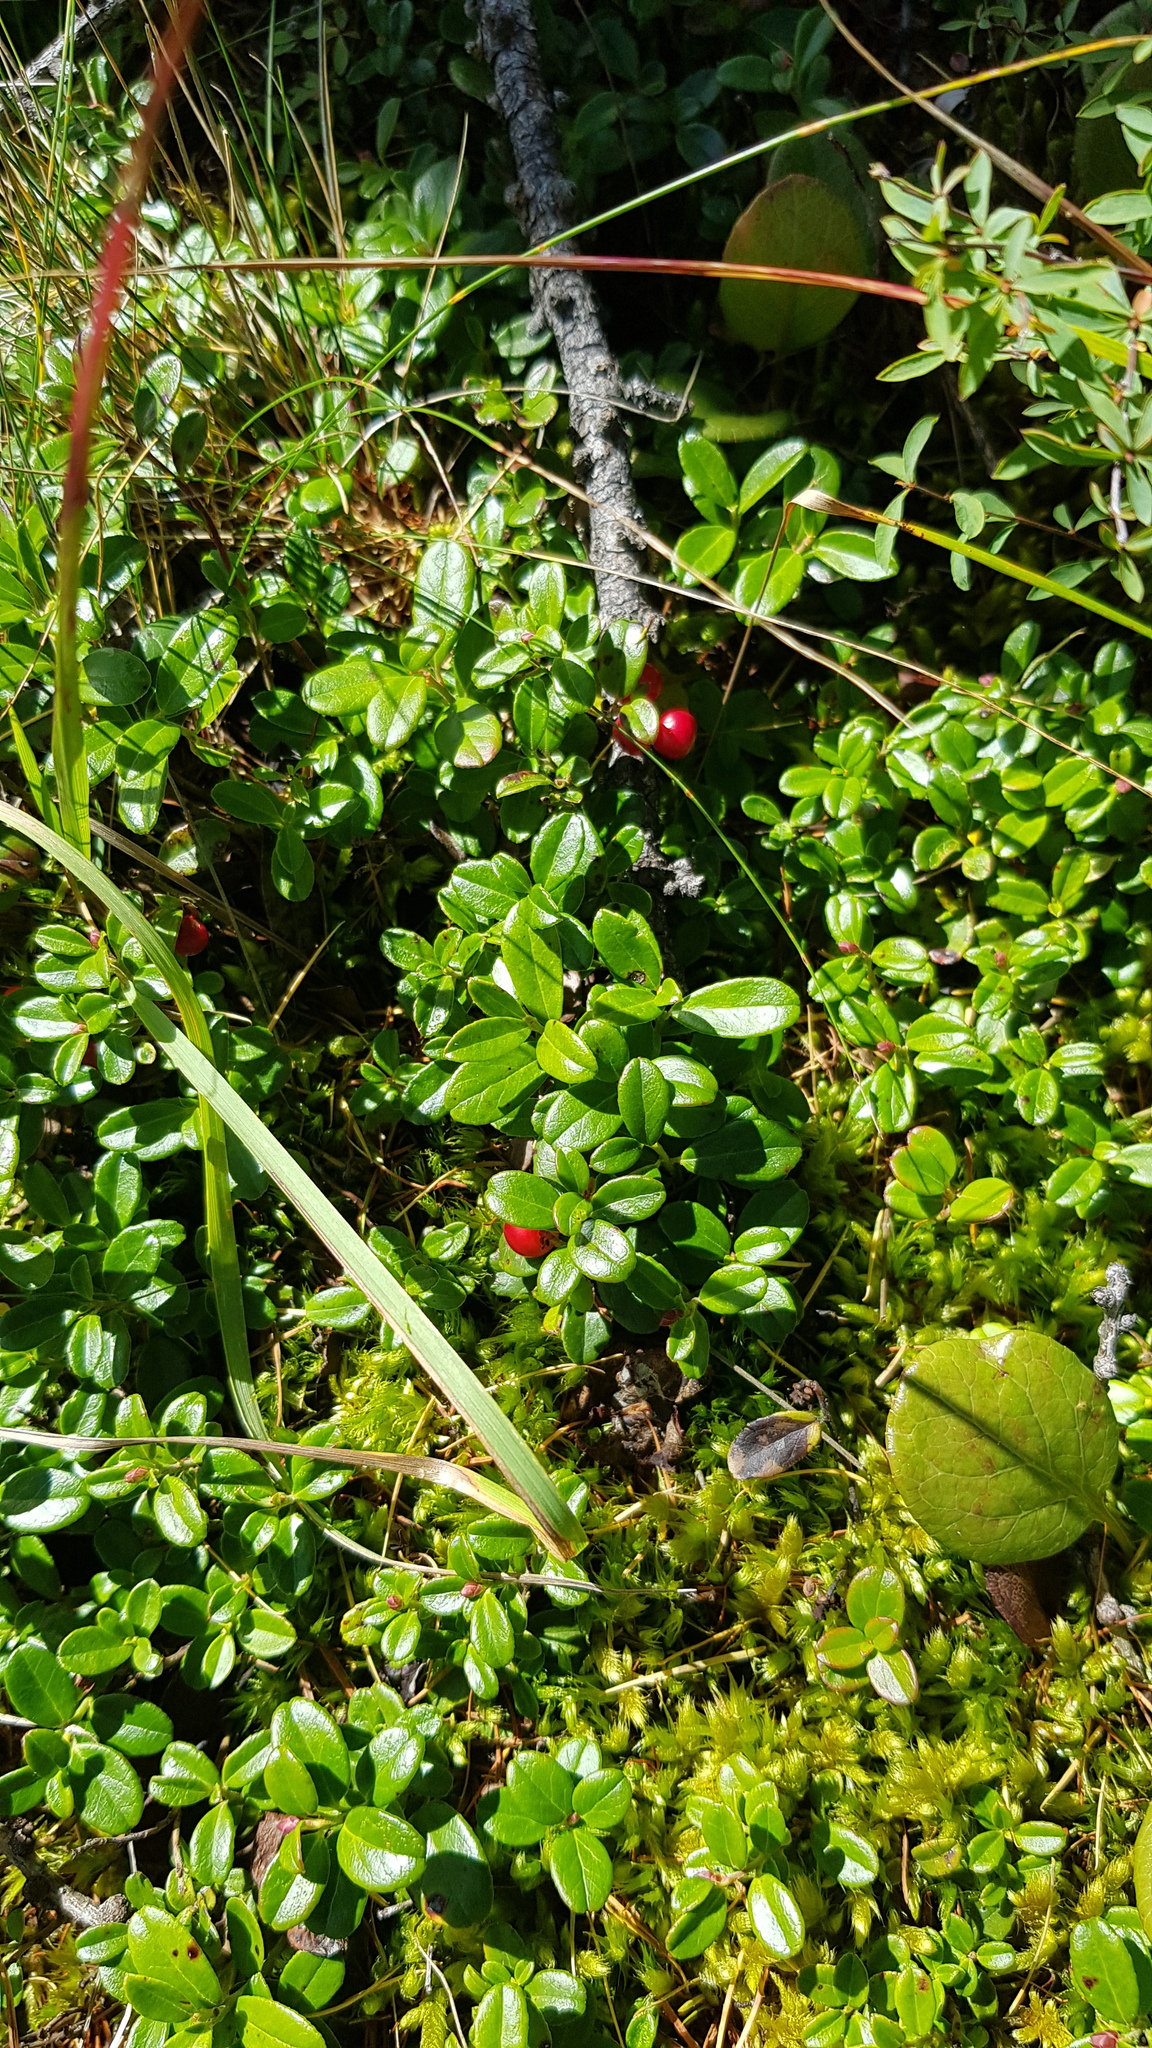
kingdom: Plantae
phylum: Tracheophyta
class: Magnoliopsida
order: Ericales
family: Ericaceae
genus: Vaccinium
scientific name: Vaccinium vitis-idaea
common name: Cowberry
